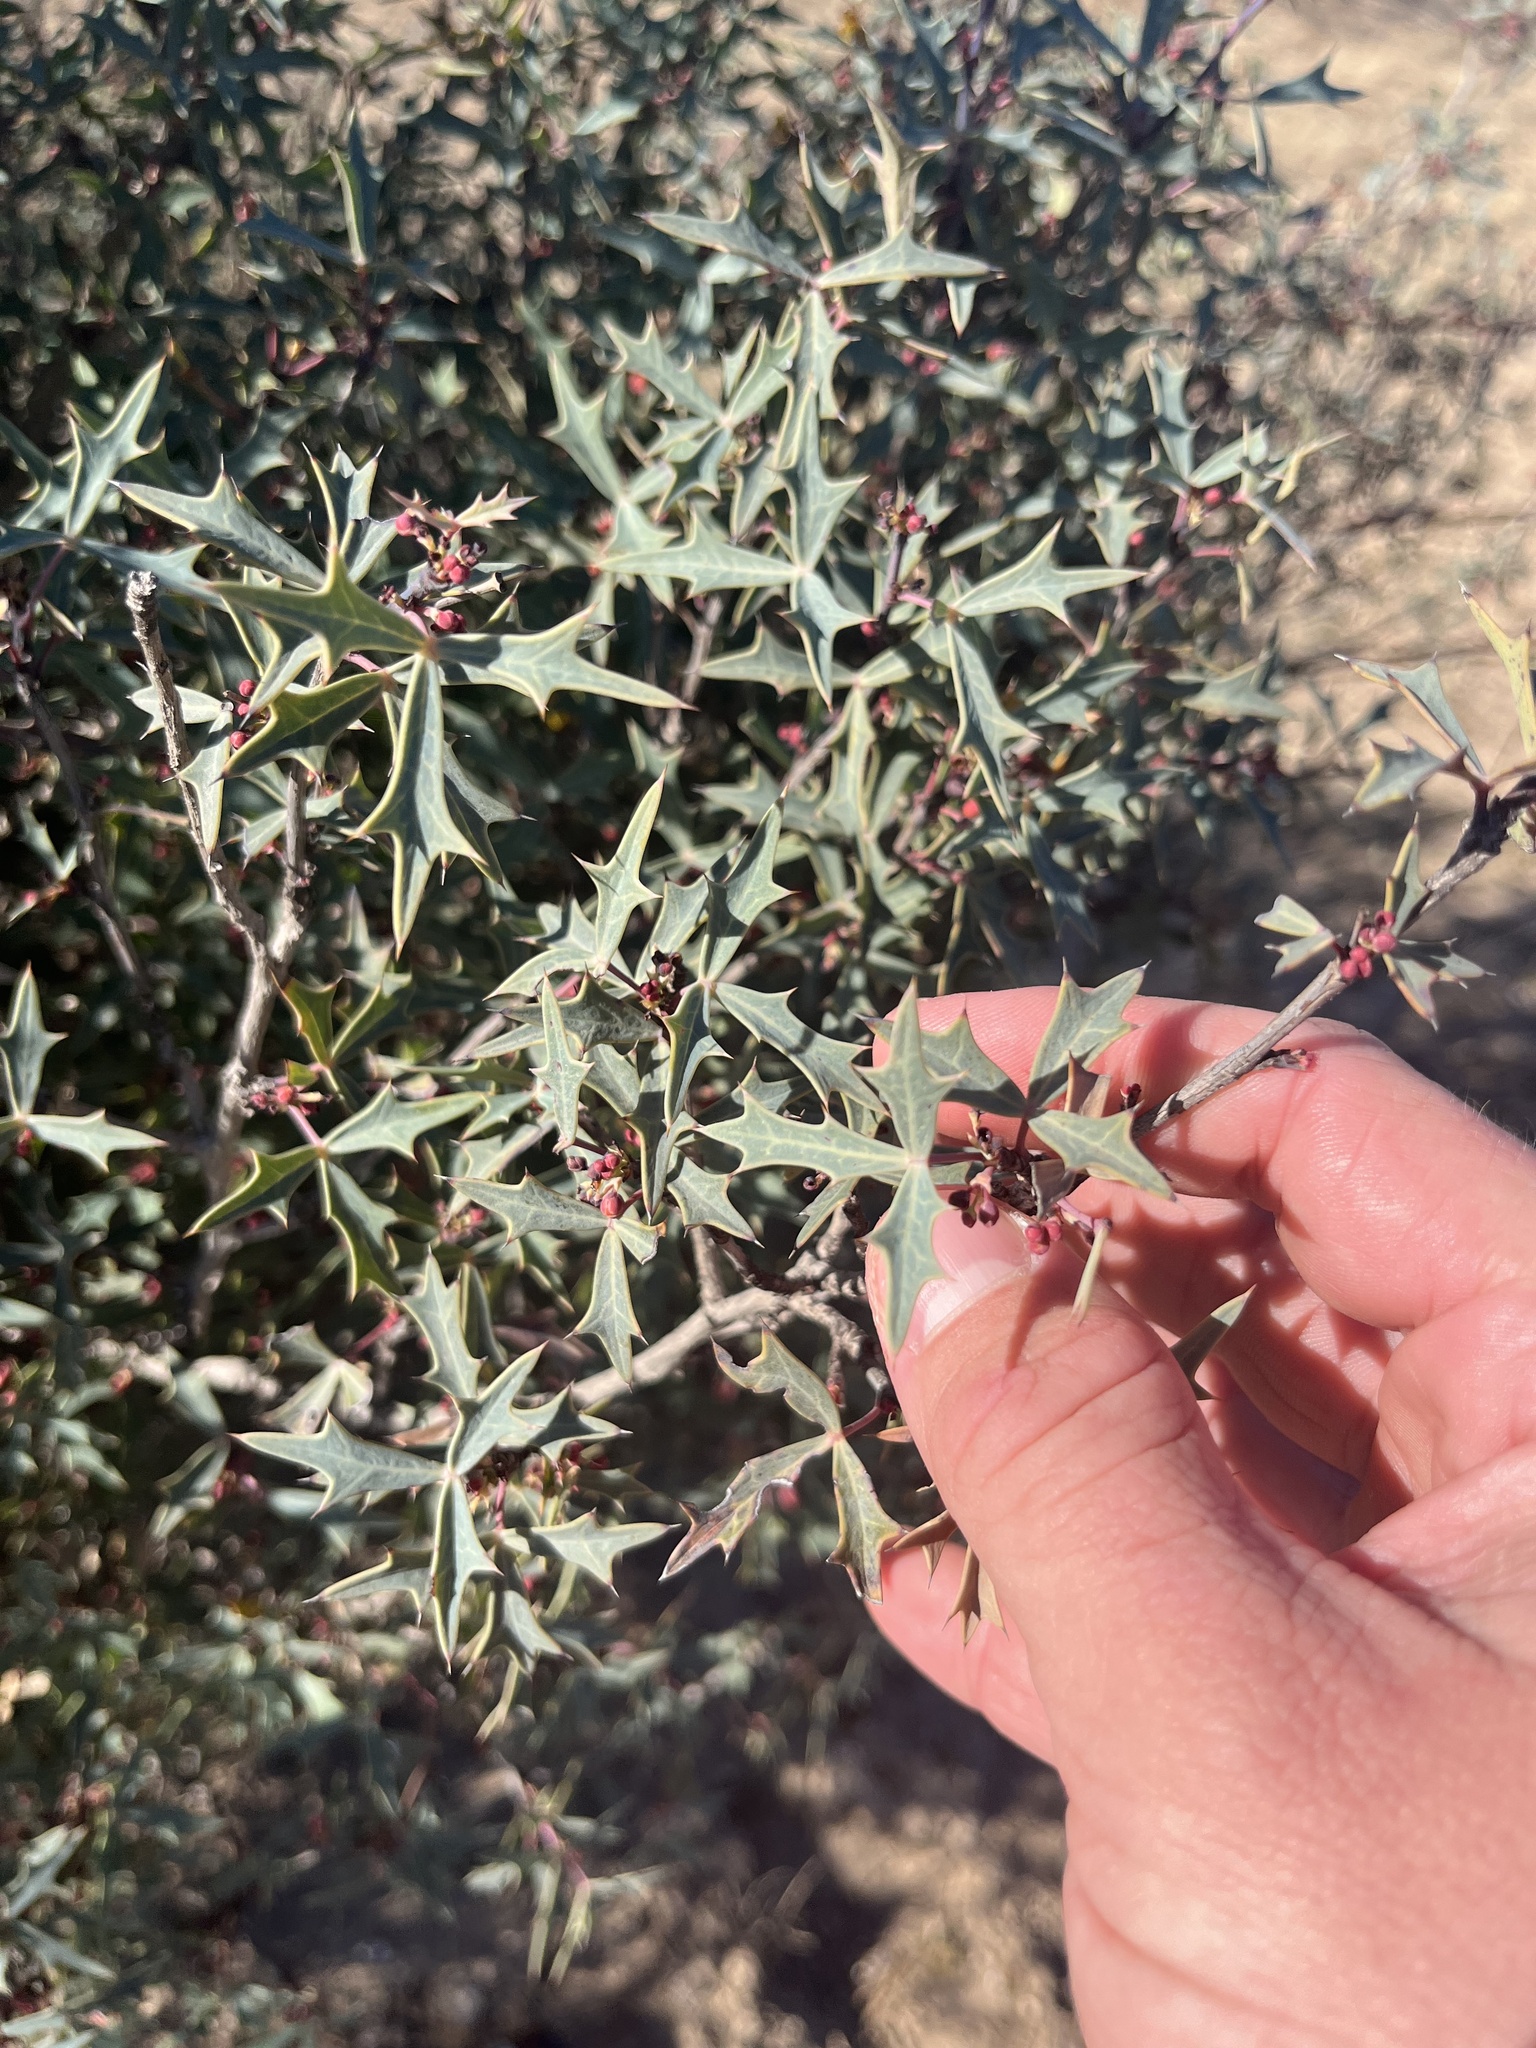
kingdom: Plantae
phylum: Tracheophyta
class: Magnoliopsida
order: Ranunculales
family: Berberidaceae
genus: Alloberberis
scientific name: Alloberberis trifoliolata
